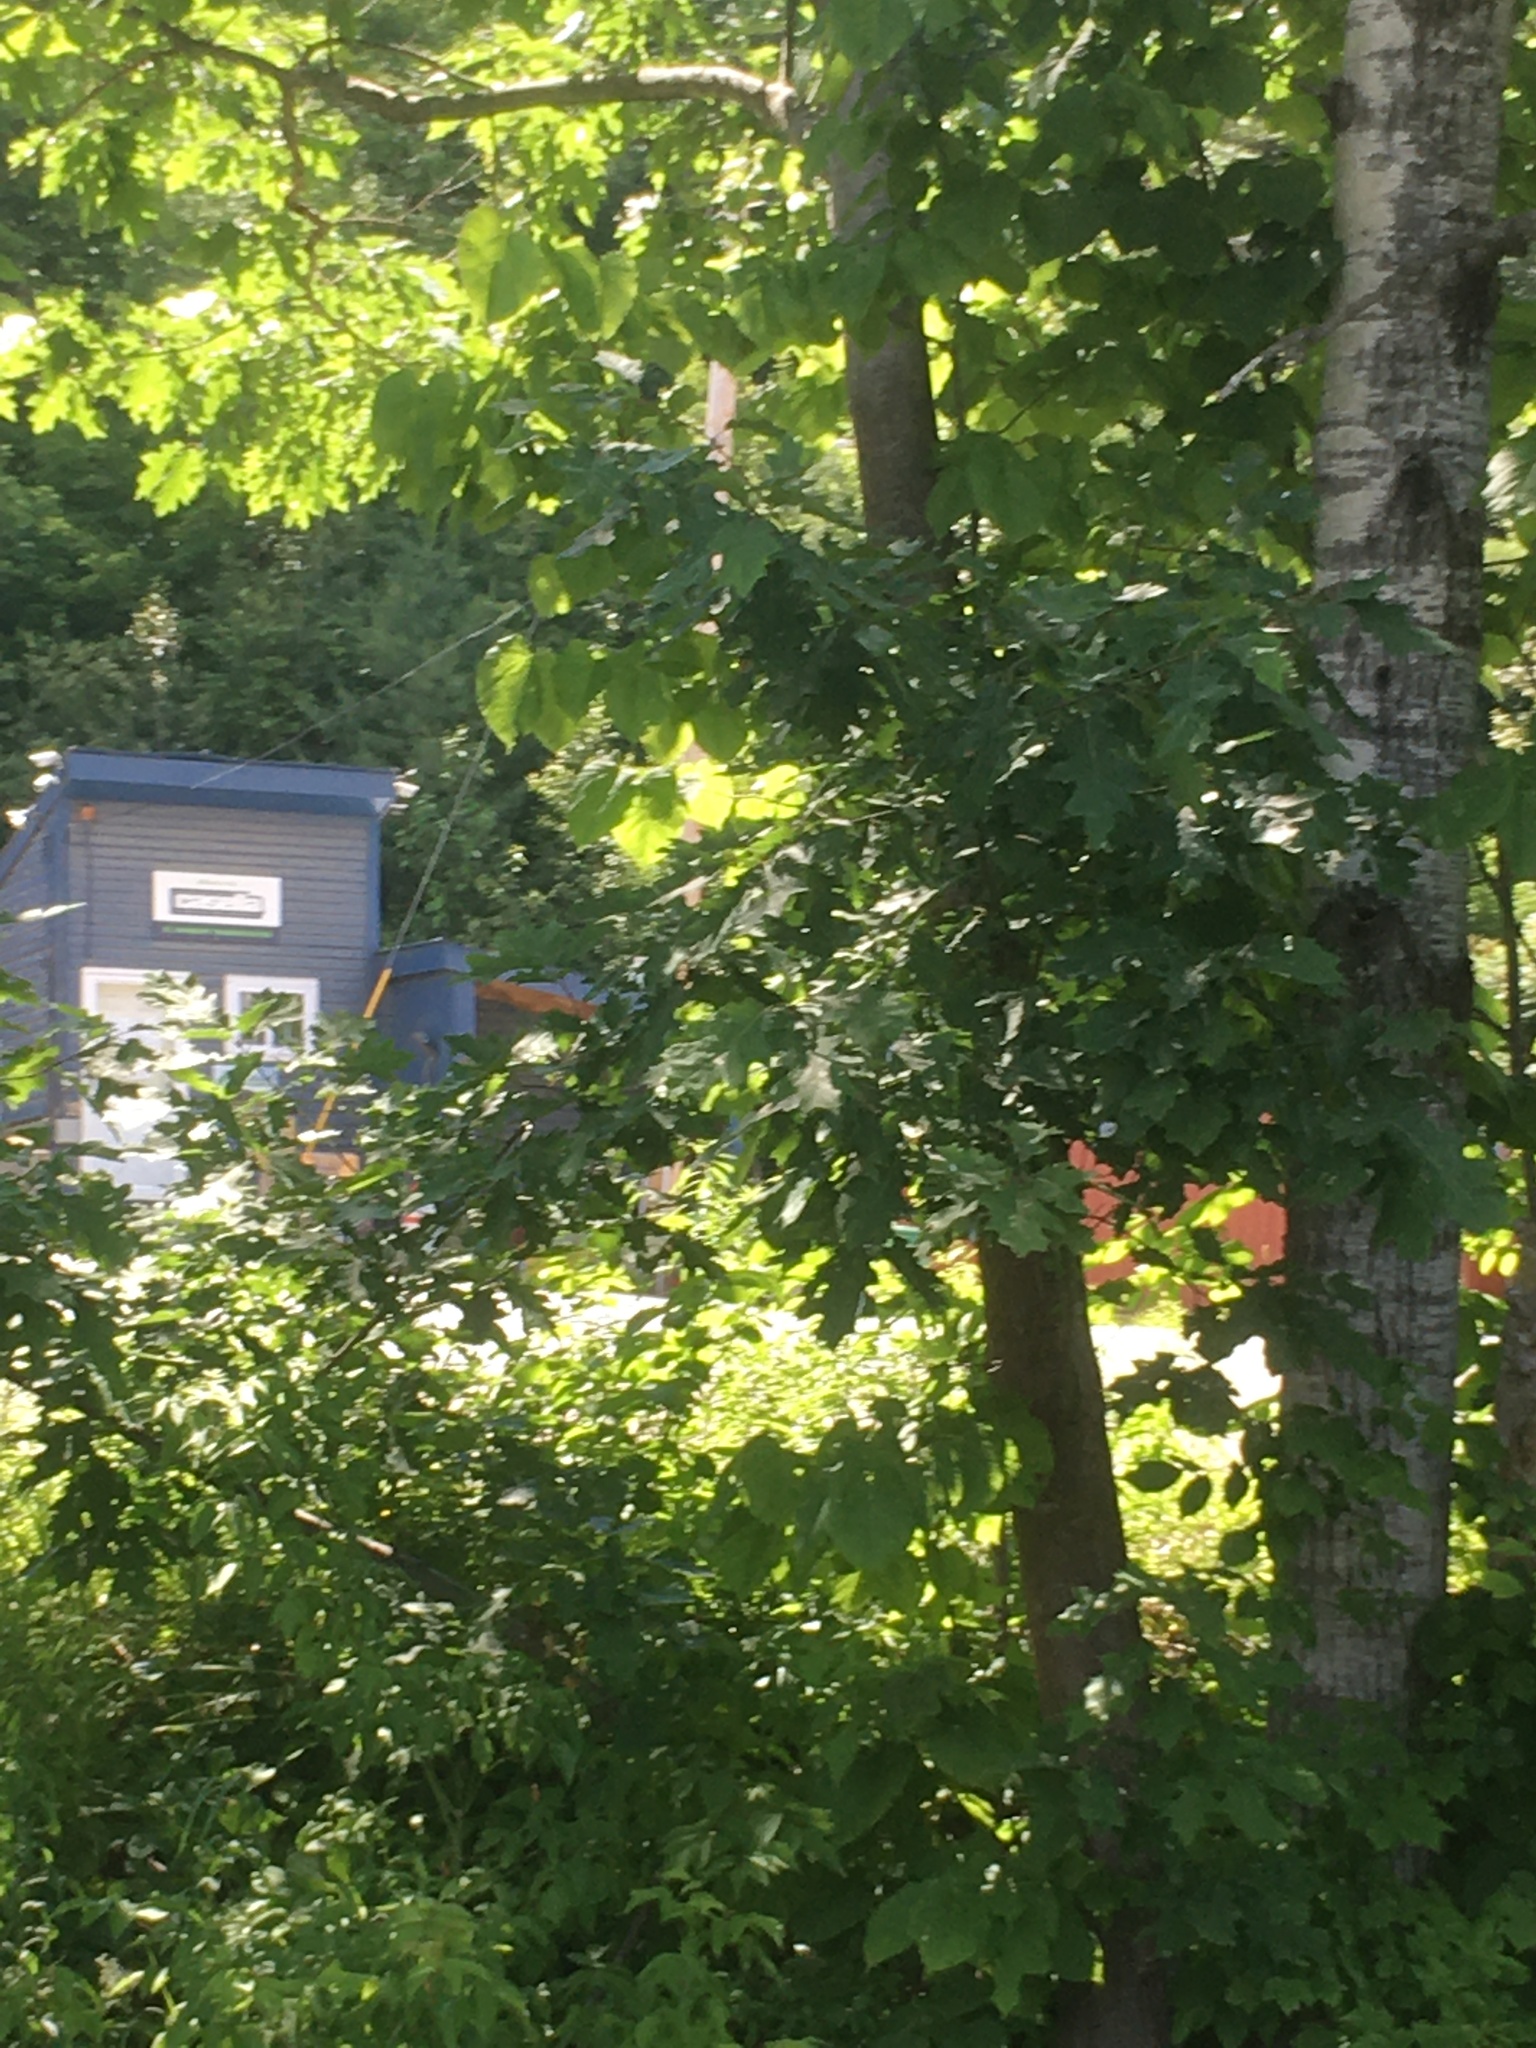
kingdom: Plantae
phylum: Tracheophyta
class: Magnoliopsida
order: Fagales
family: Fagaceae
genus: Quercus
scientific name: Quercus rubra
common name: Red oak
